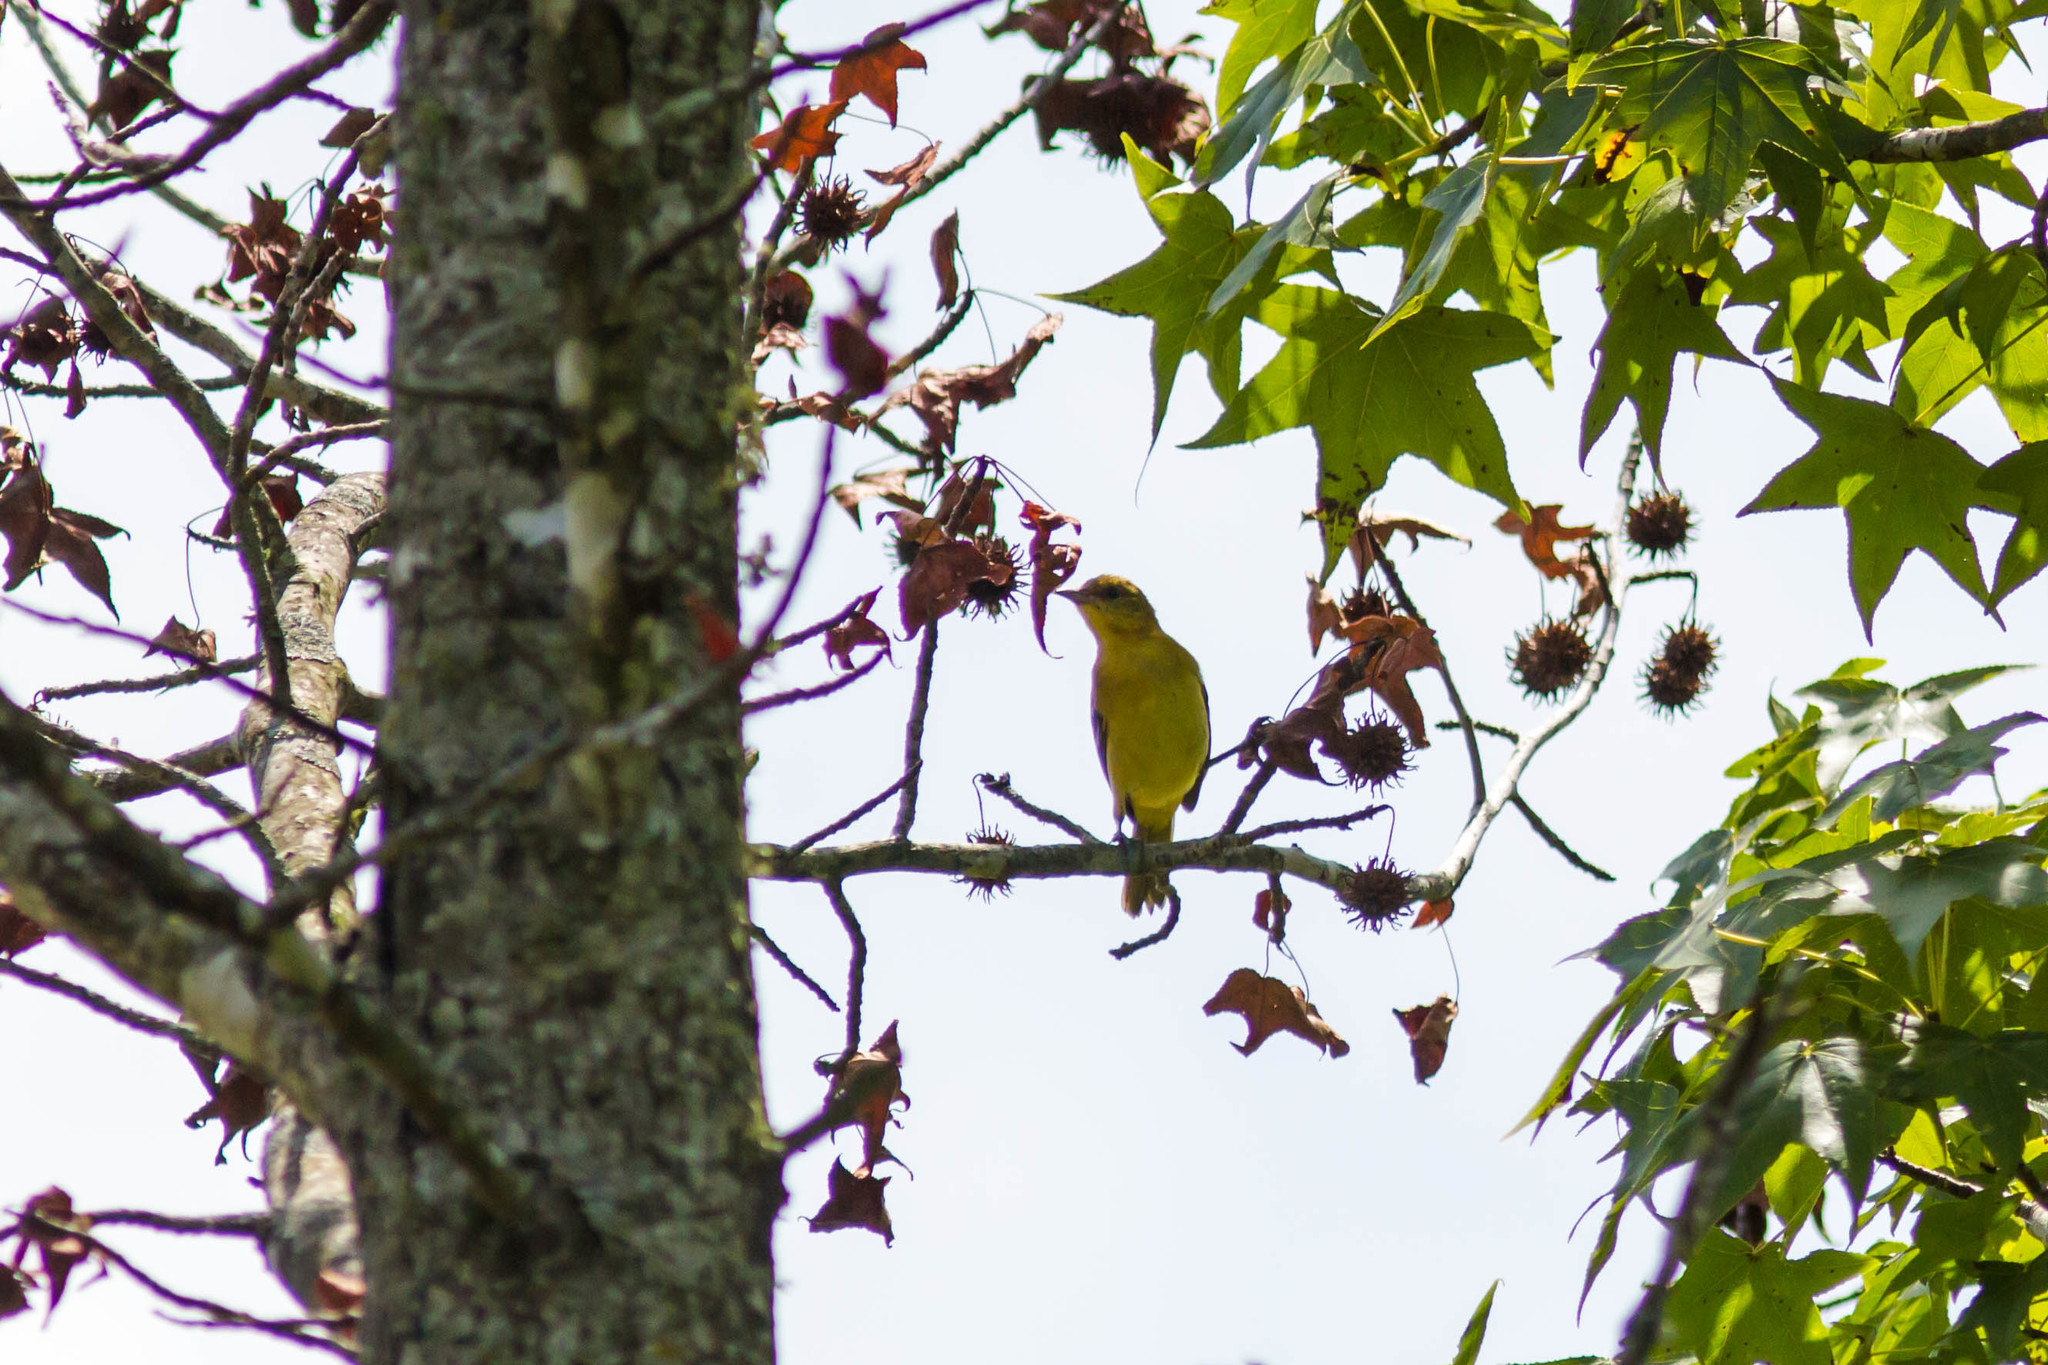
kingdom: Animalia
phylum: Chordata
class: Aves
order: Passeriformes
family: Icteridae
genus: Icterus
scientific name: Icterus spurius
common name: Orchard oriole
